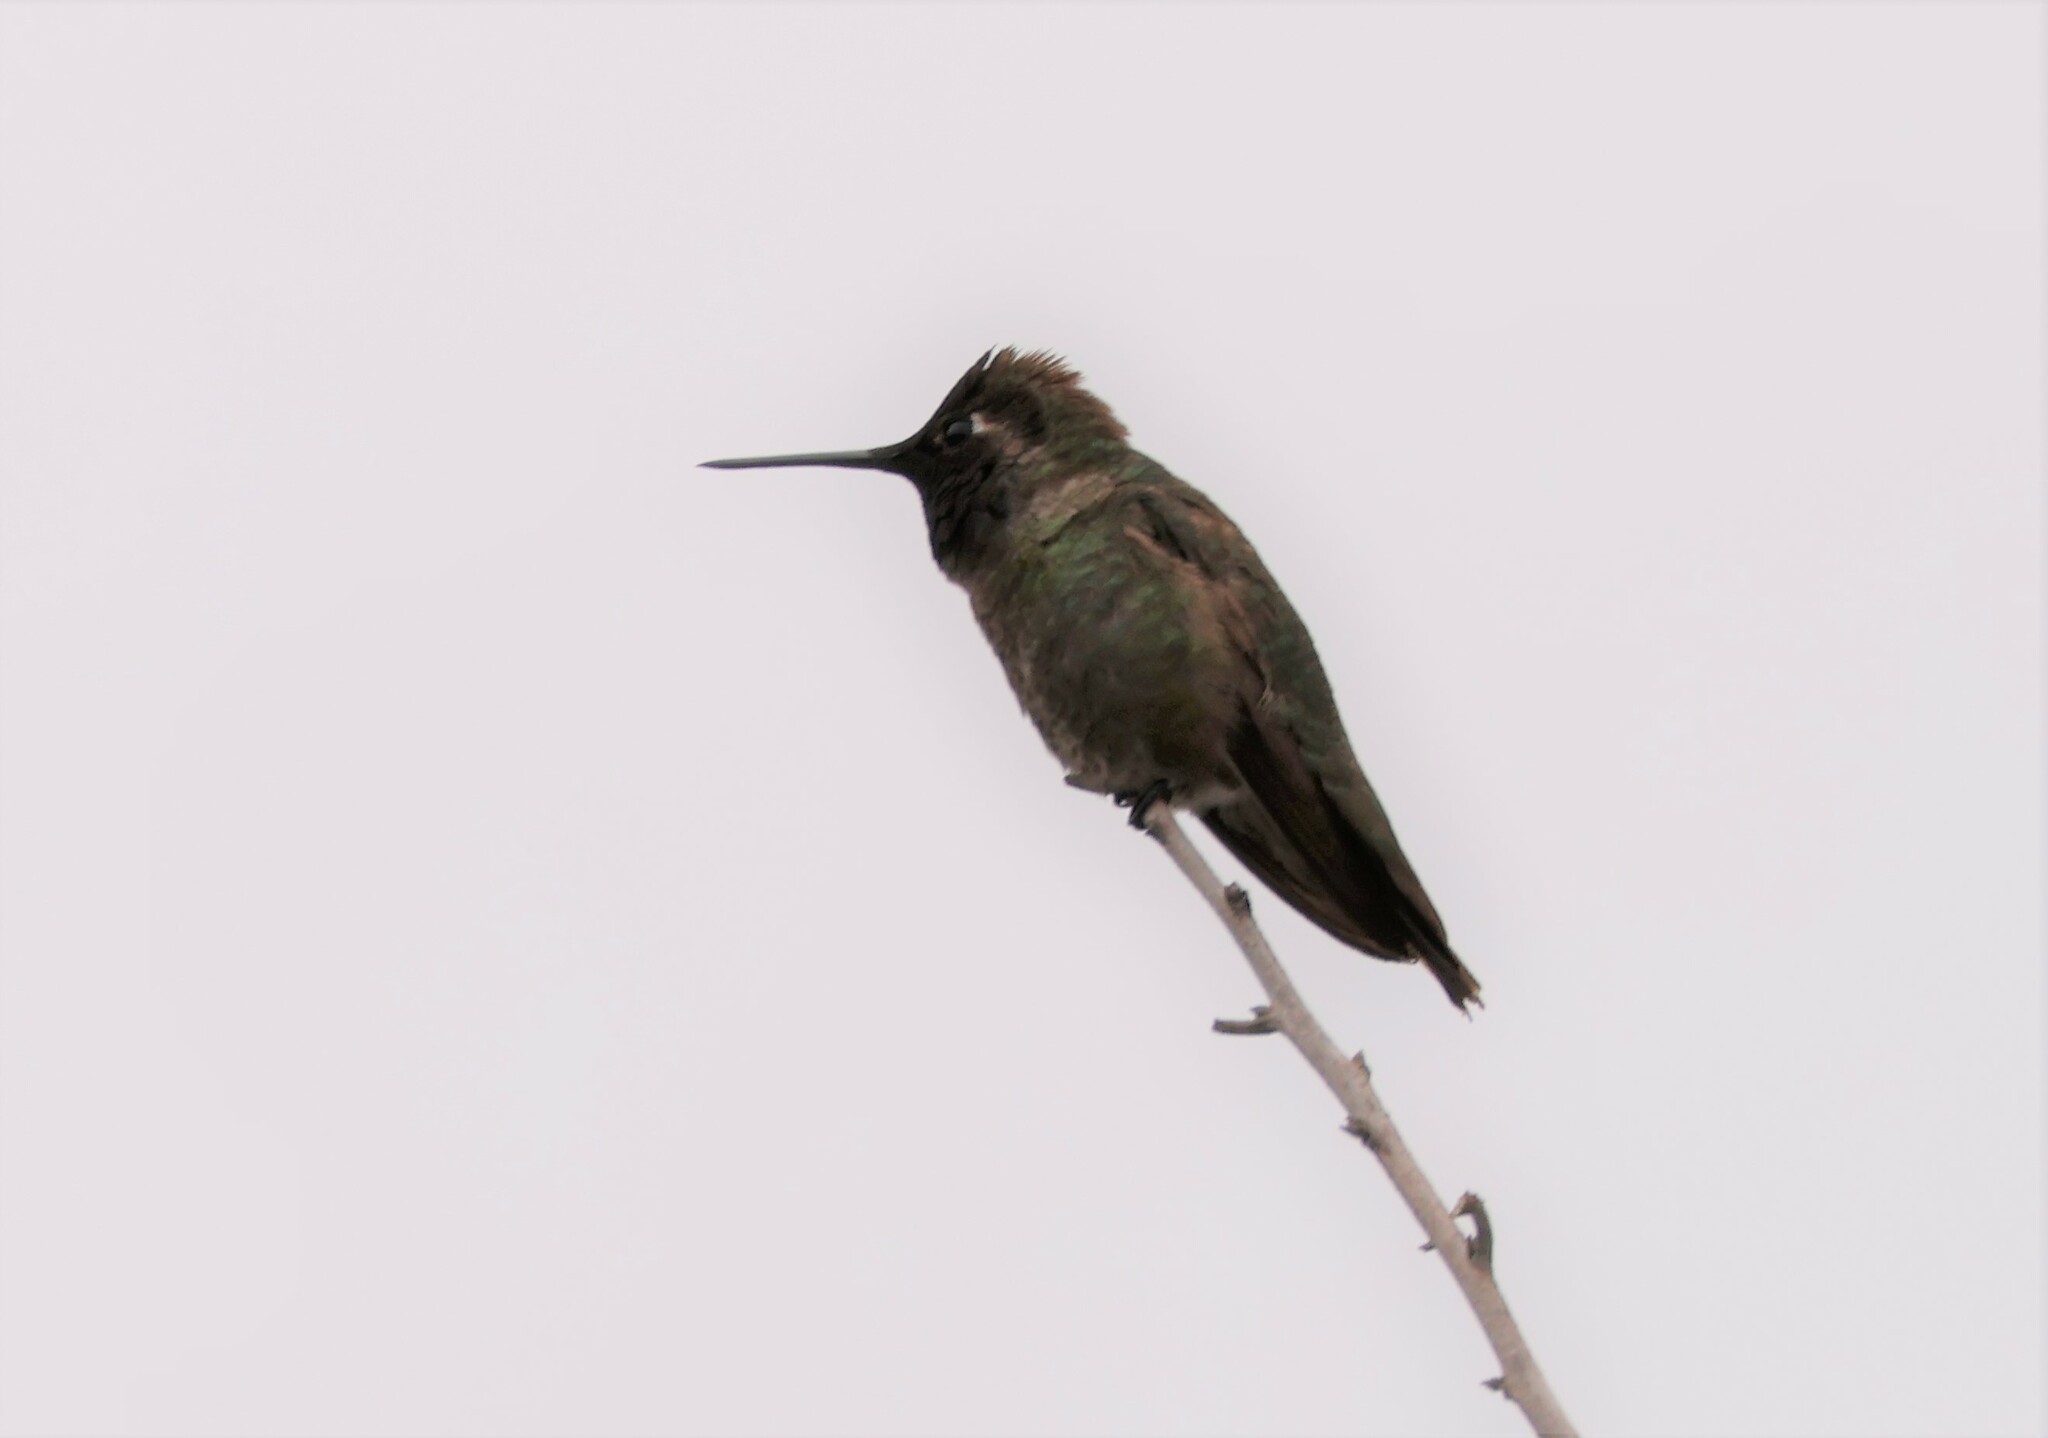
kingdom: Animalia
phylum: Chordata
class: Aves
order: Apodiformes
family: Trochilidae
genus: Calypte
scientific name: Calypte anna
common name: Anna's hummingbird
